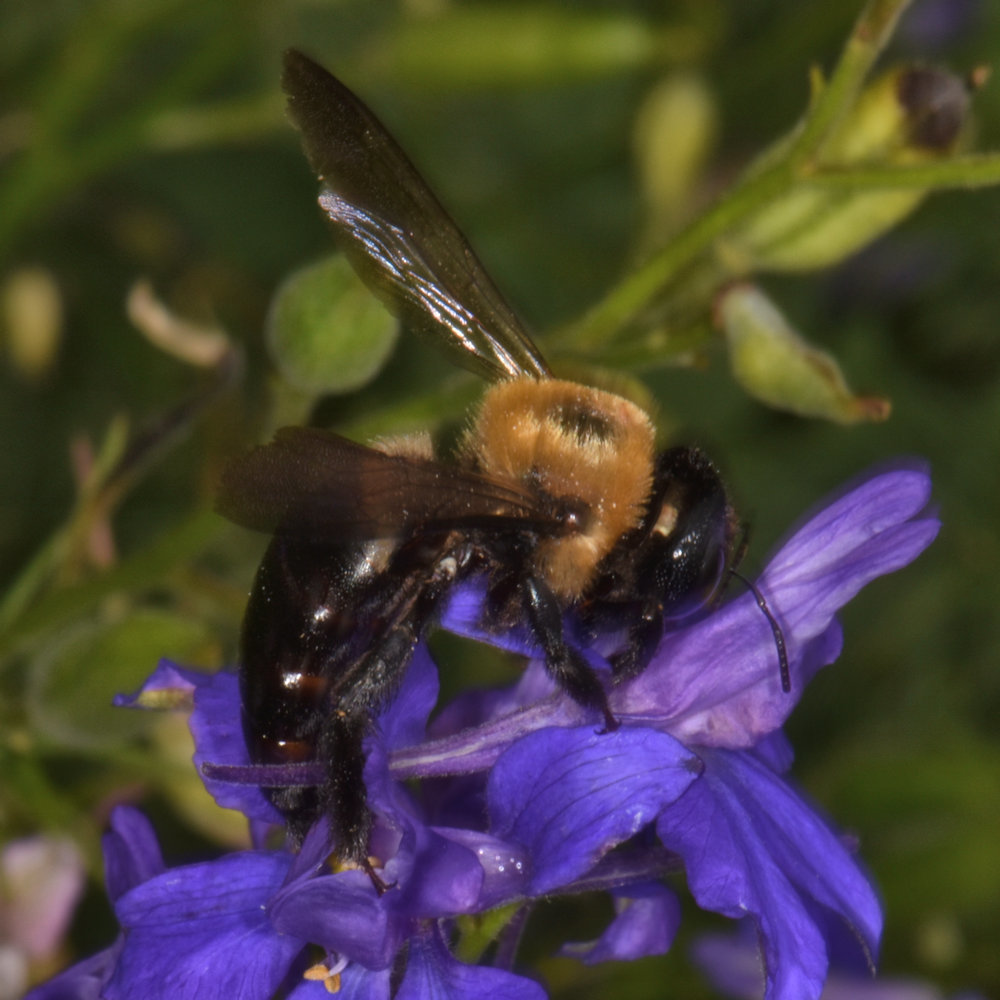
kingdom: Animalia
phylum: Arthropoda
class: Insecta
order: Hymenoptera
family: Apidae
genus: Xylocopa
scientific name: Xylocopa virginica
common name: Carpenter bee
